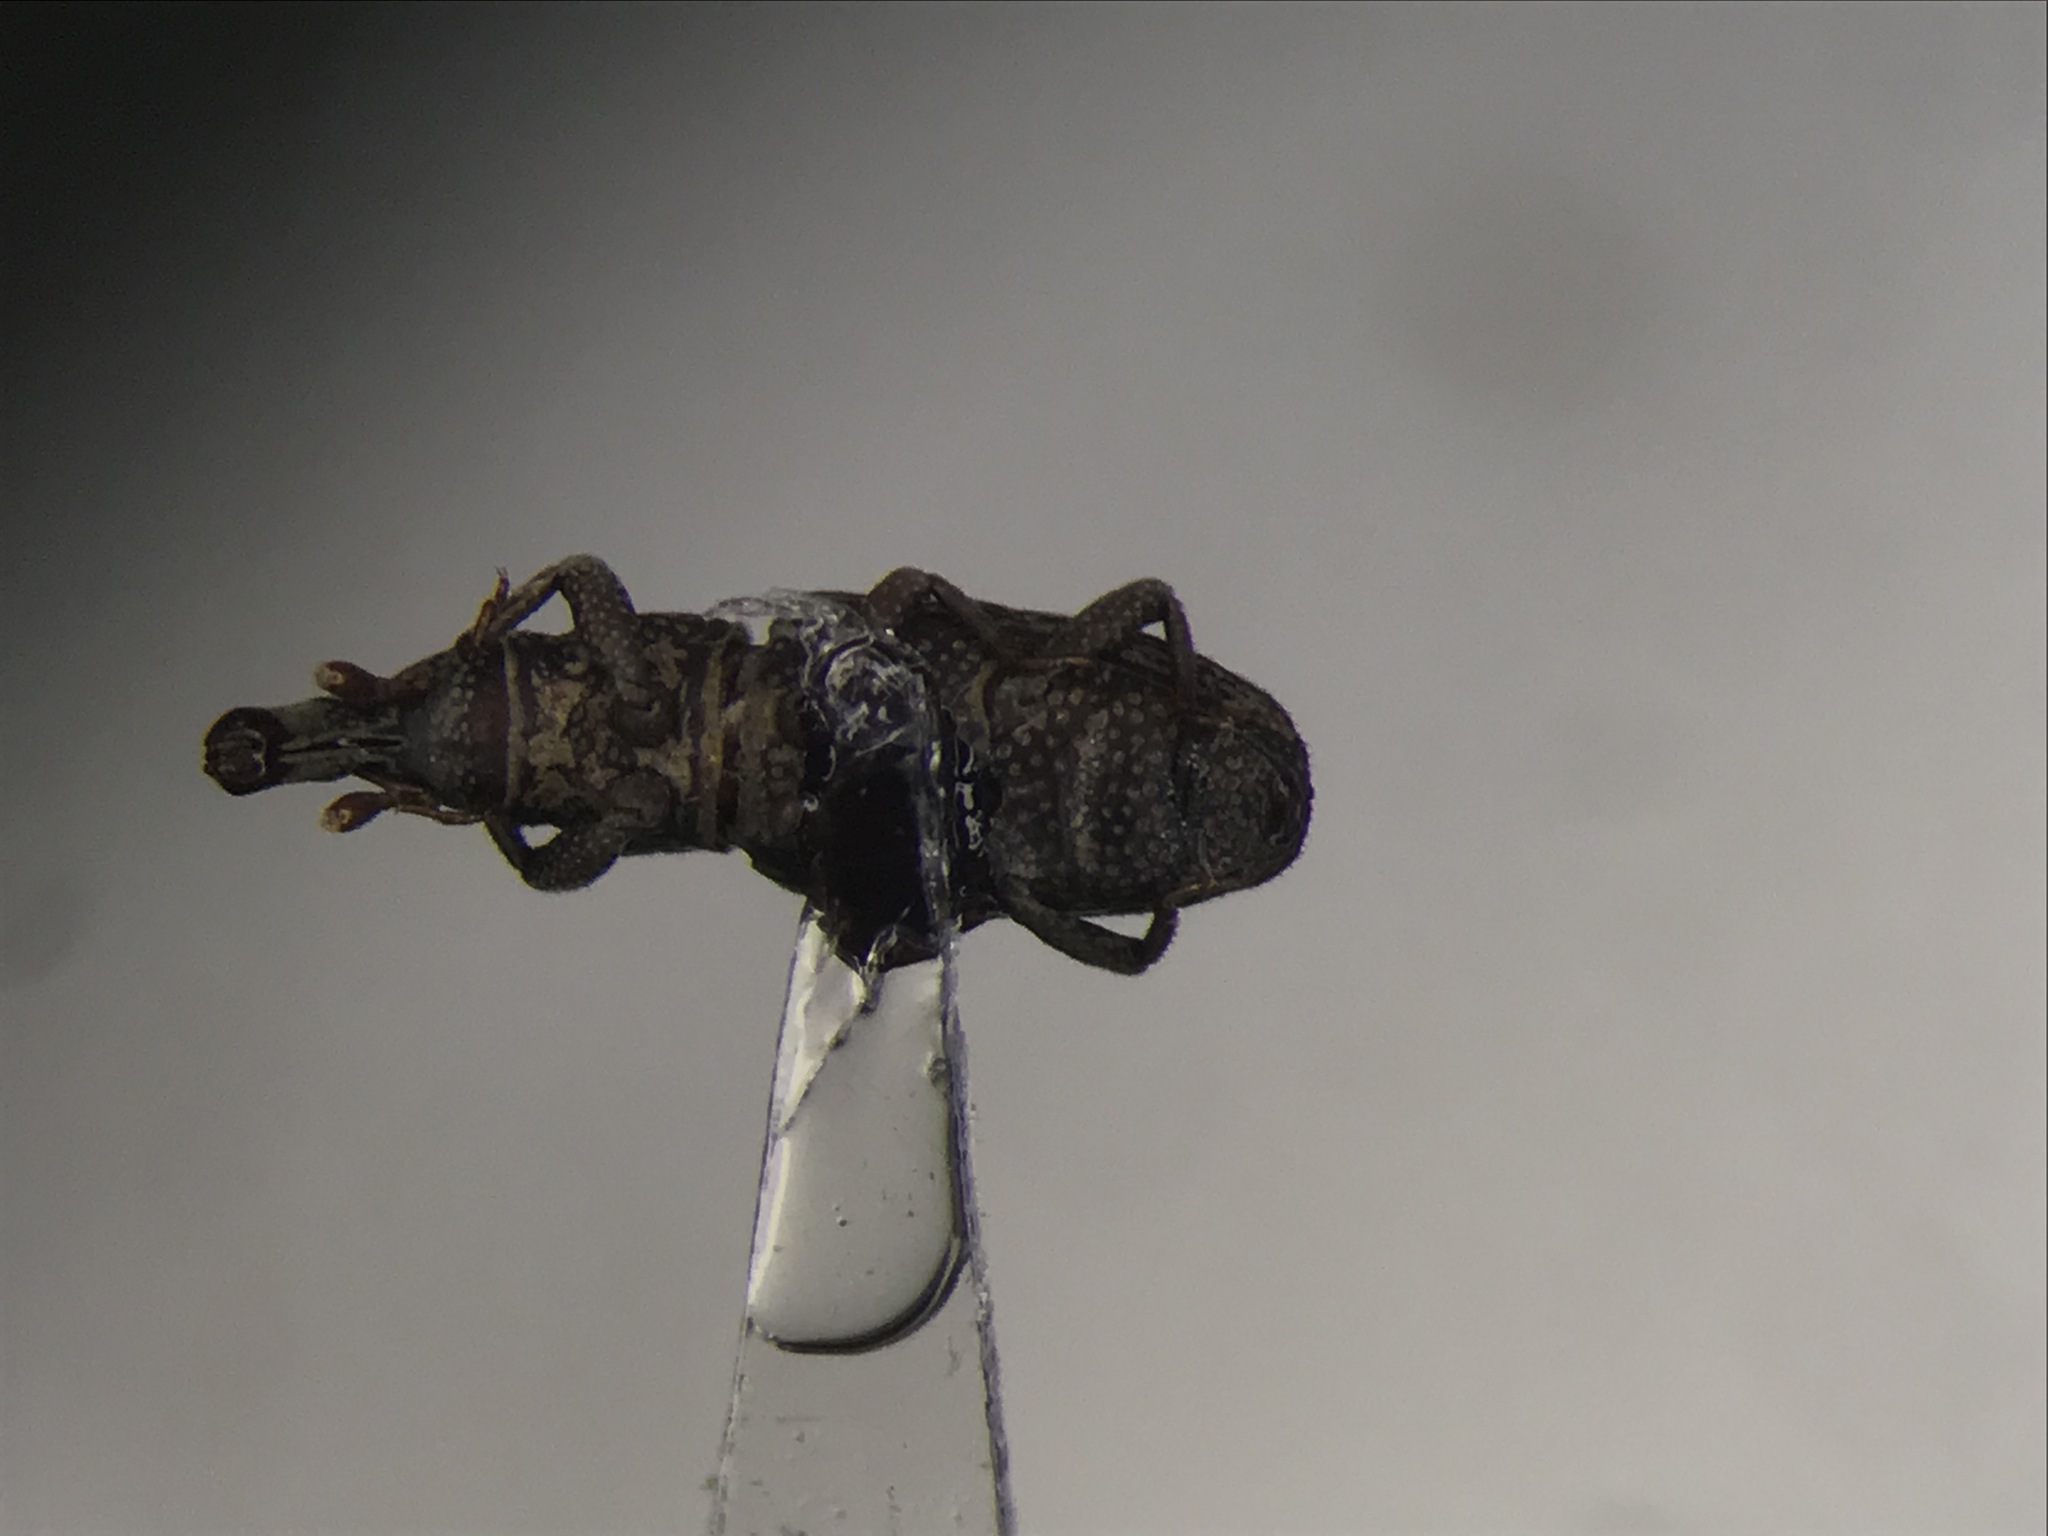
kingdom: Animalia
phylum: Arthropoda
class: Insecta
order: Coleoptera
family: Dryophthoridae
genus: Dryophthorus
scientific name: Dryophthorus americanus
